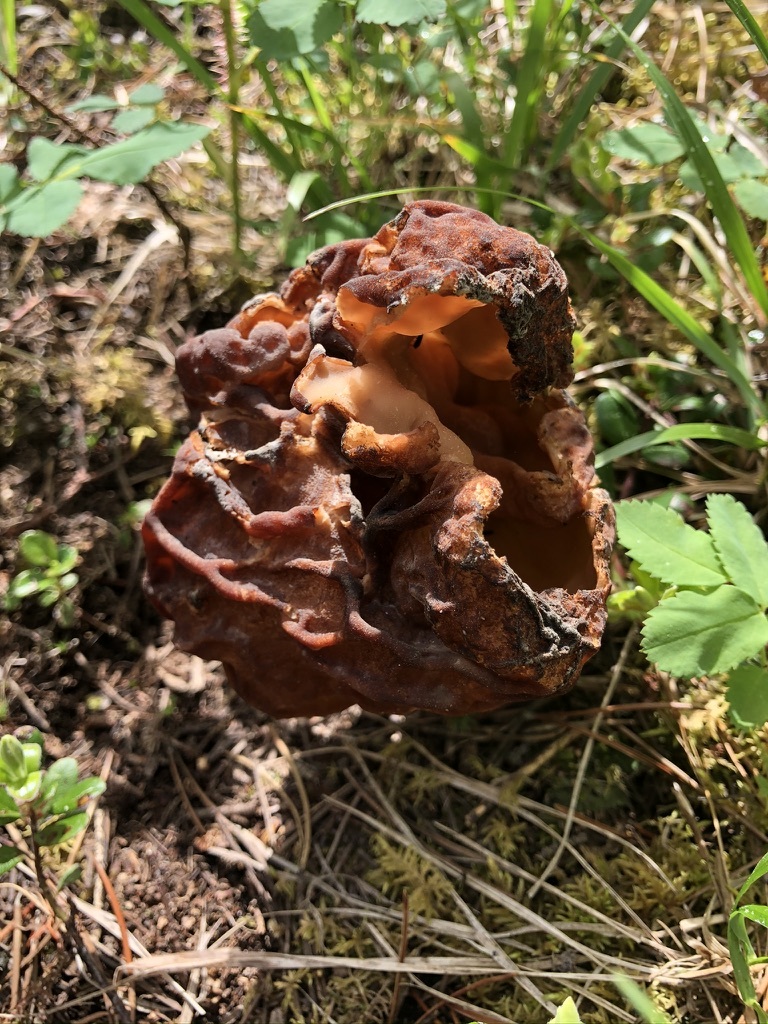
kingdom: Fungi
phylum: Ascomycota
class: Pezizomycetes
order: Pezizales
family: Discinaceae
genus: Gyromitra
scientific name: Gyromitra esculenta
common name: False morel
